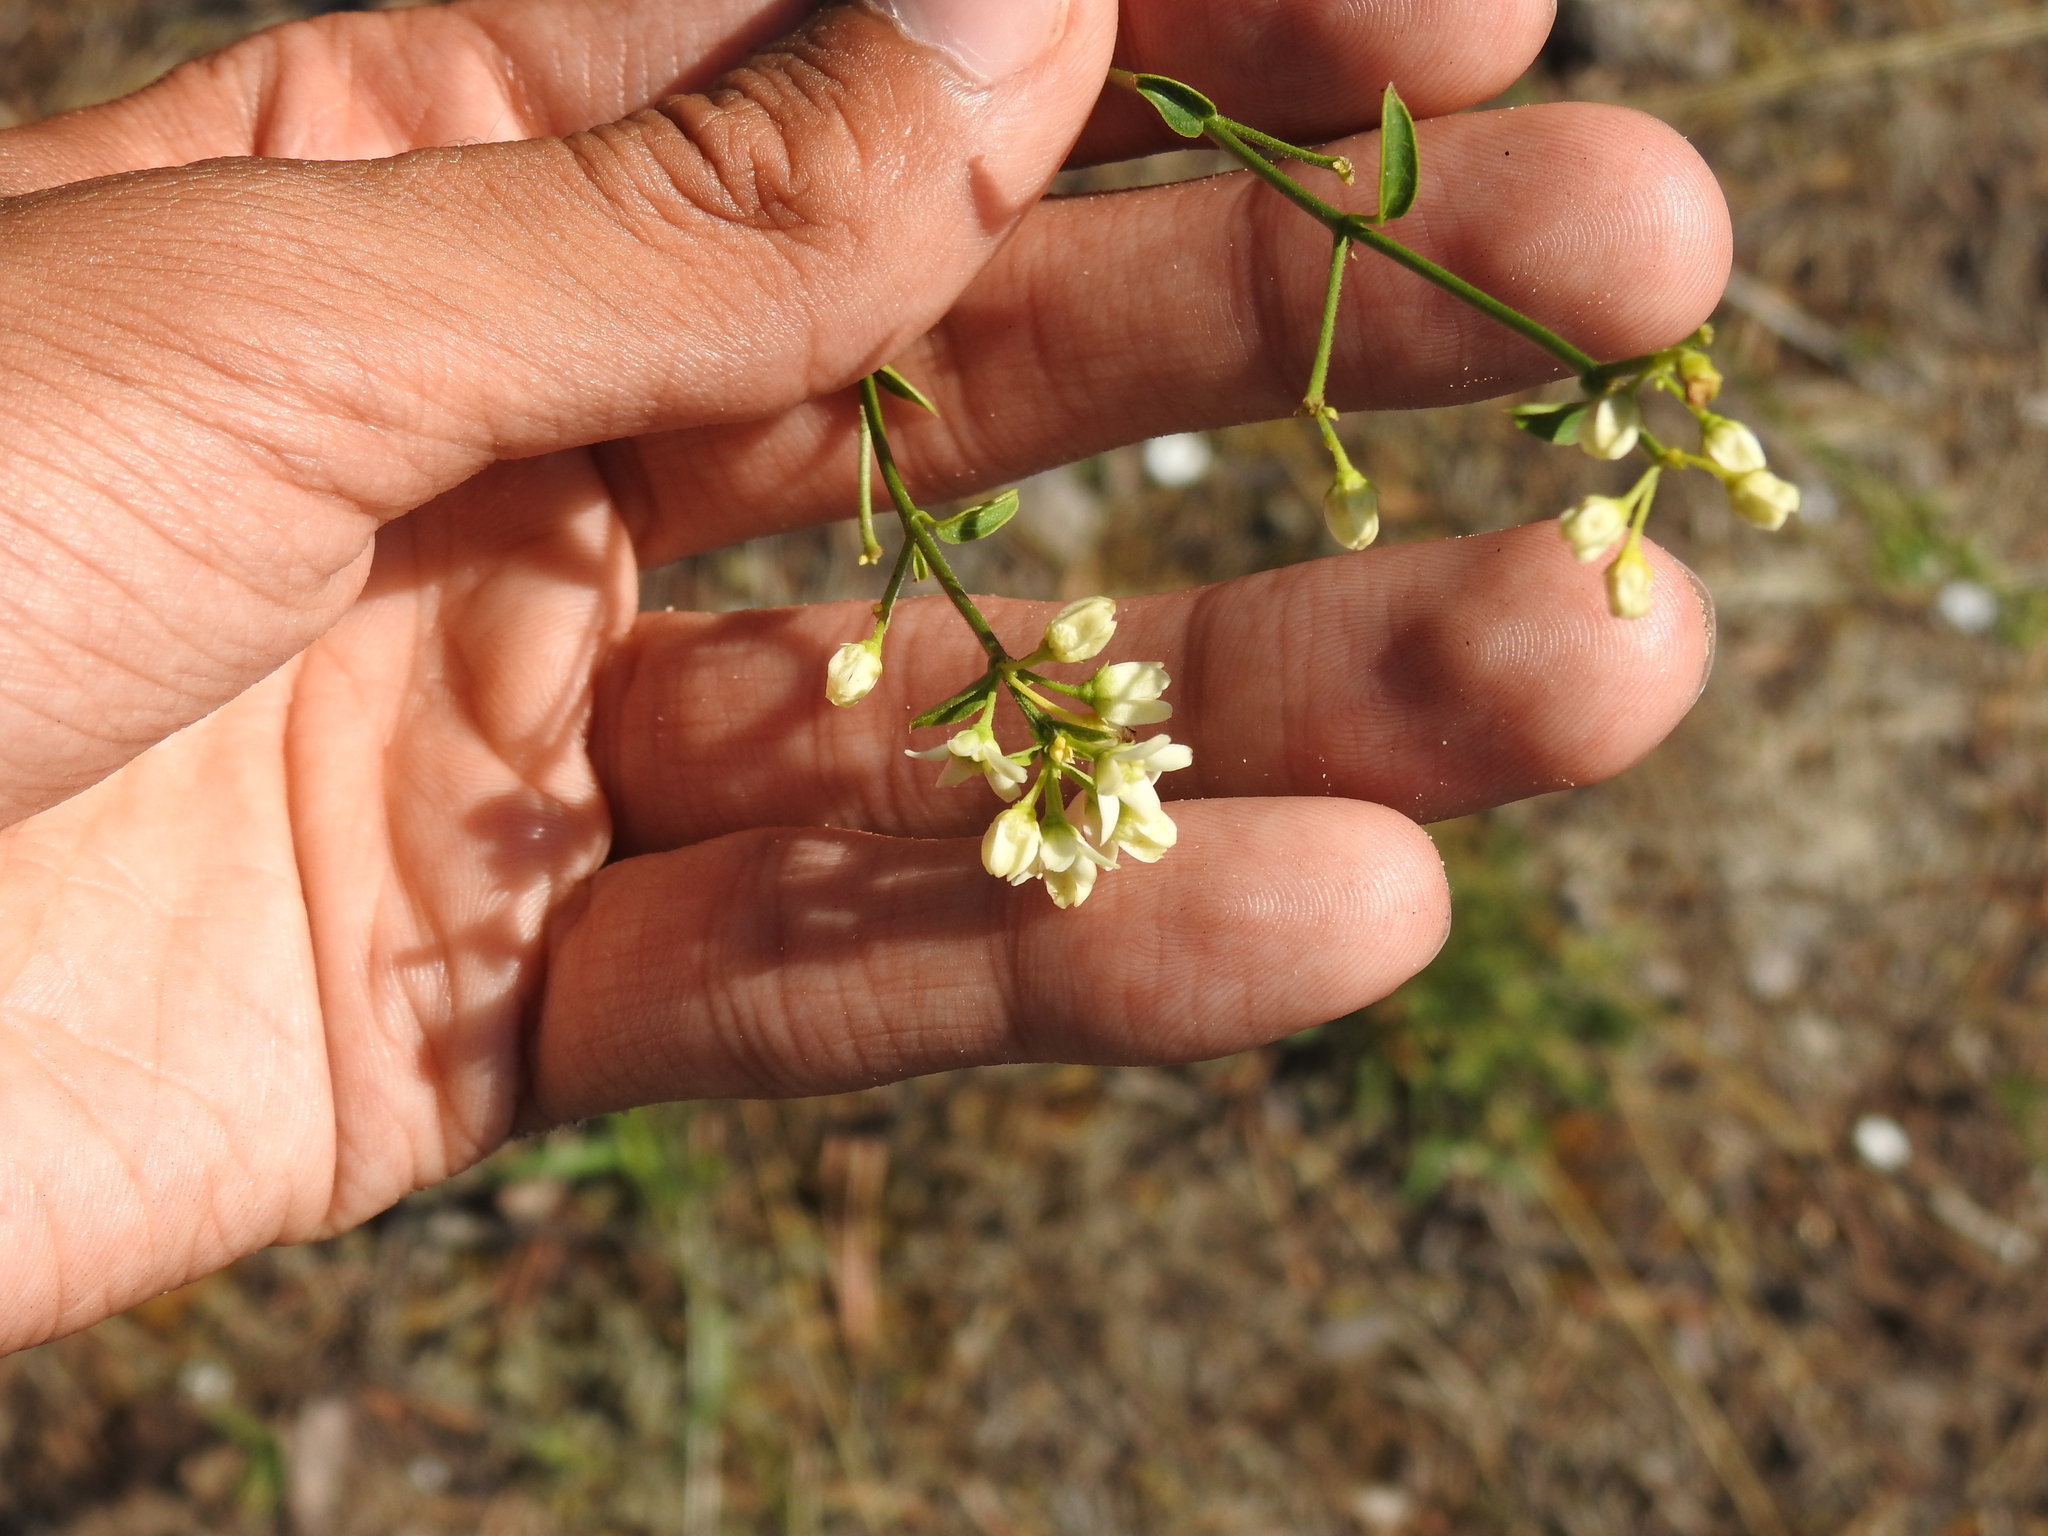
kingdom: Plantae
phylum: Tracheophyta
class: Magnoliopsida
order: Gentianales
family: Apocynaceae
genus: Vincetoxicum
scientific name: Vincetoxicum hirundinaria
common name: White swallowwort
